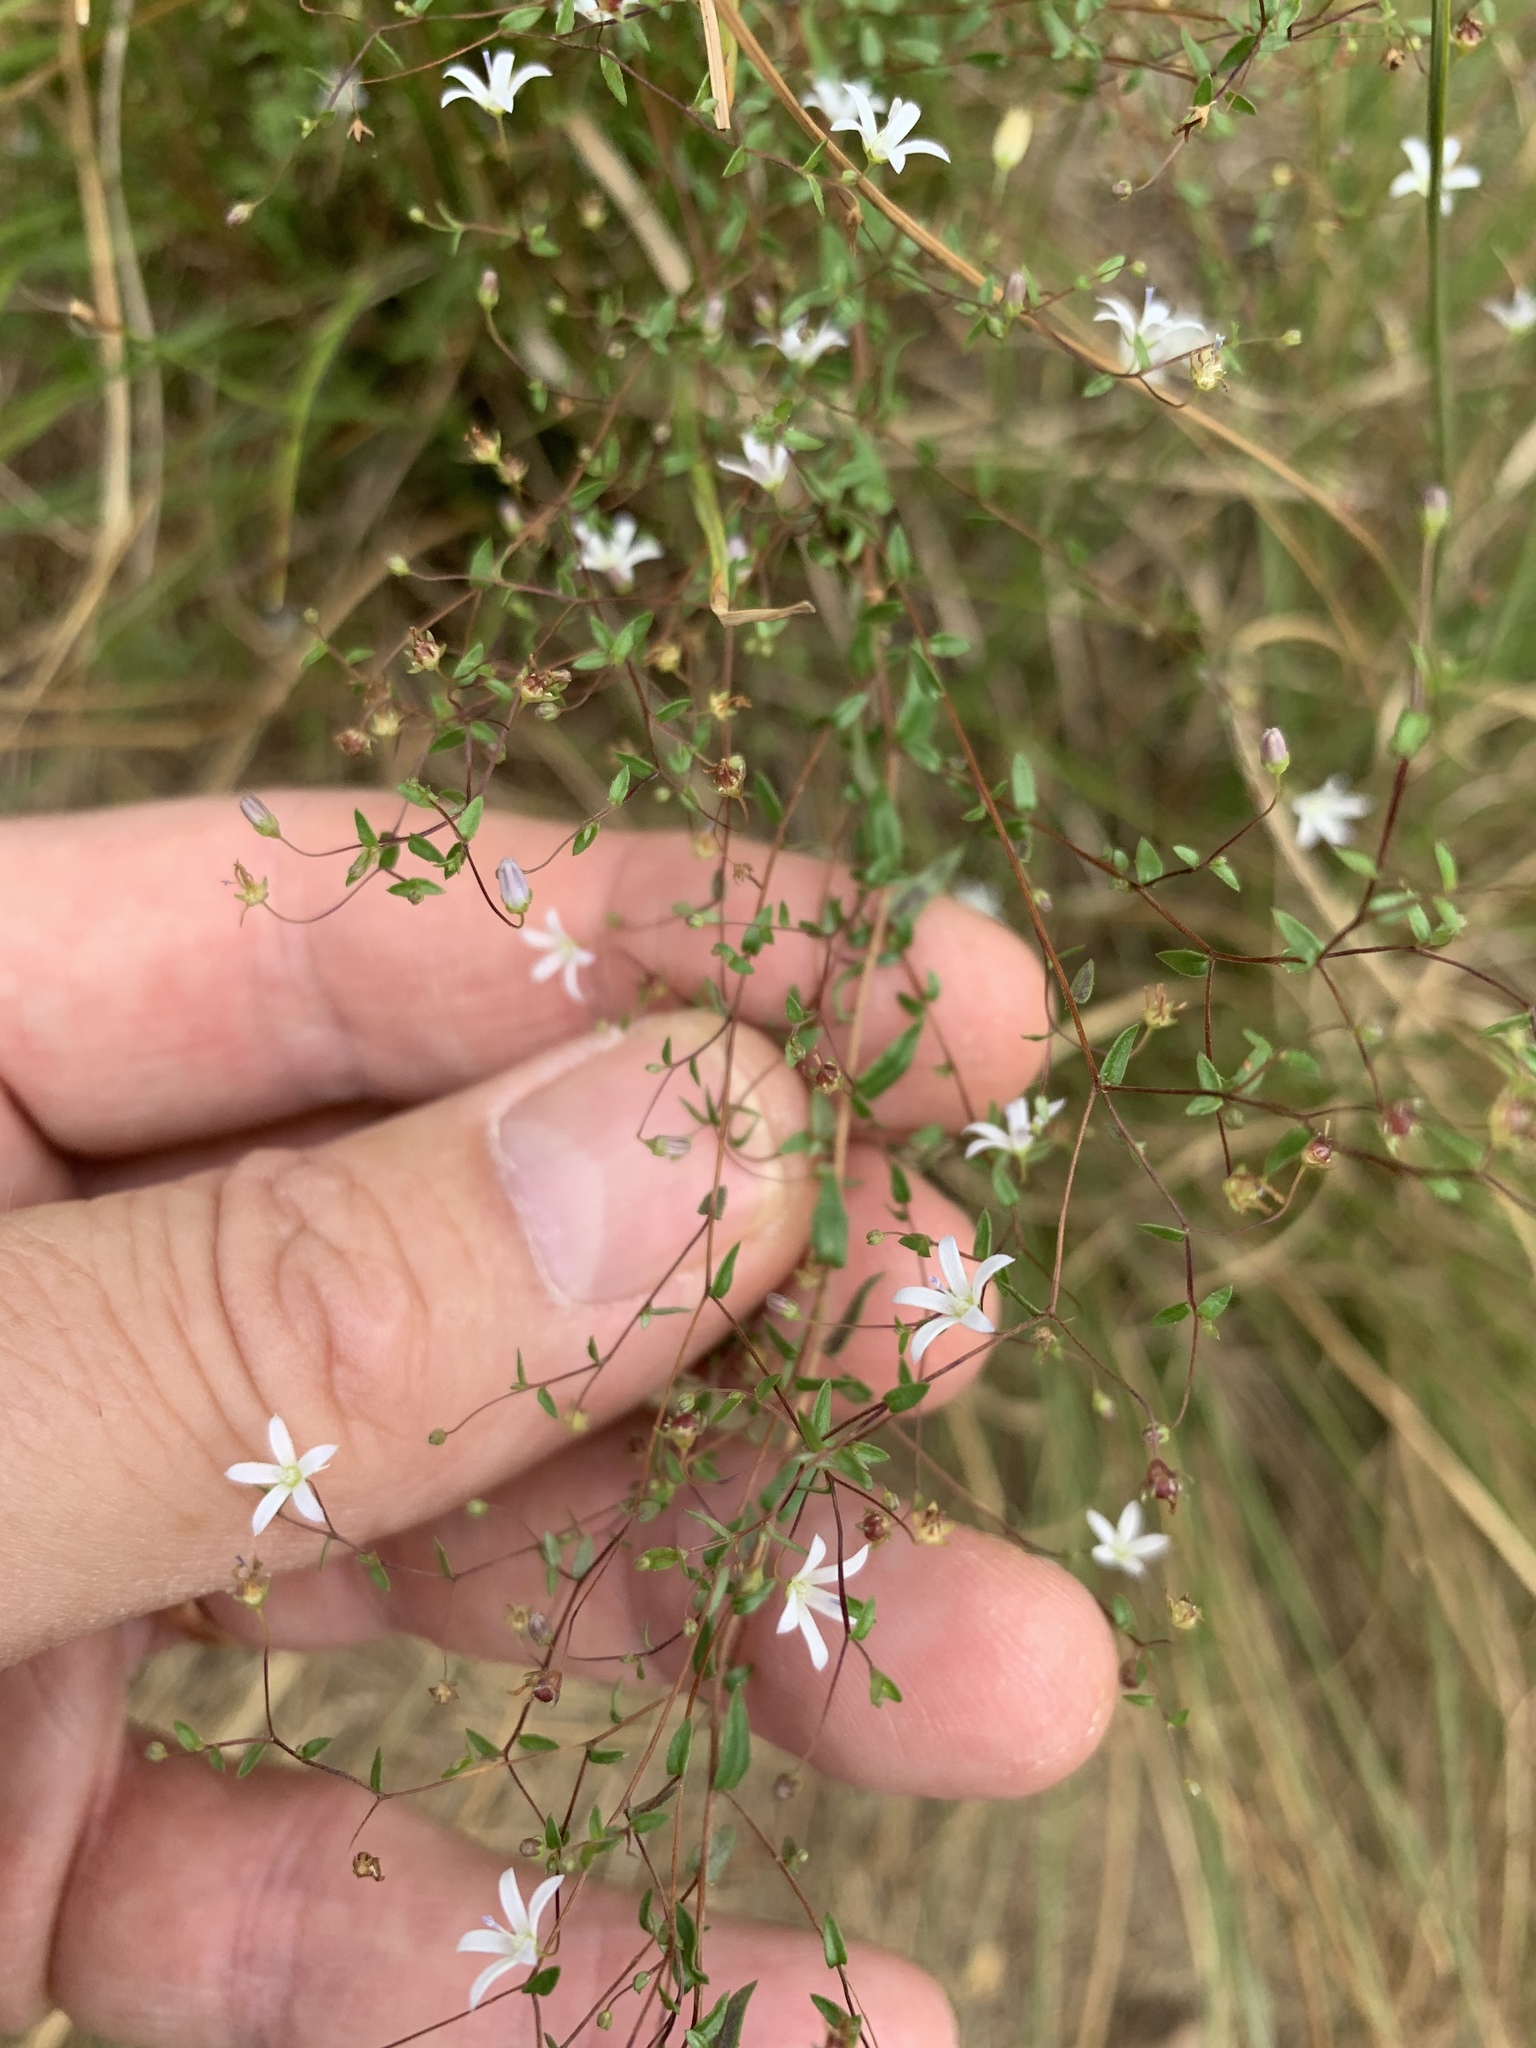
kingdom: Plantae
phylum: Tracheophyta
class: Magnoliopsida
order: Asterales
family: Campanulaceae
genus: Wahlenbergia
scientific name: Wahlenbergia parvifolia
